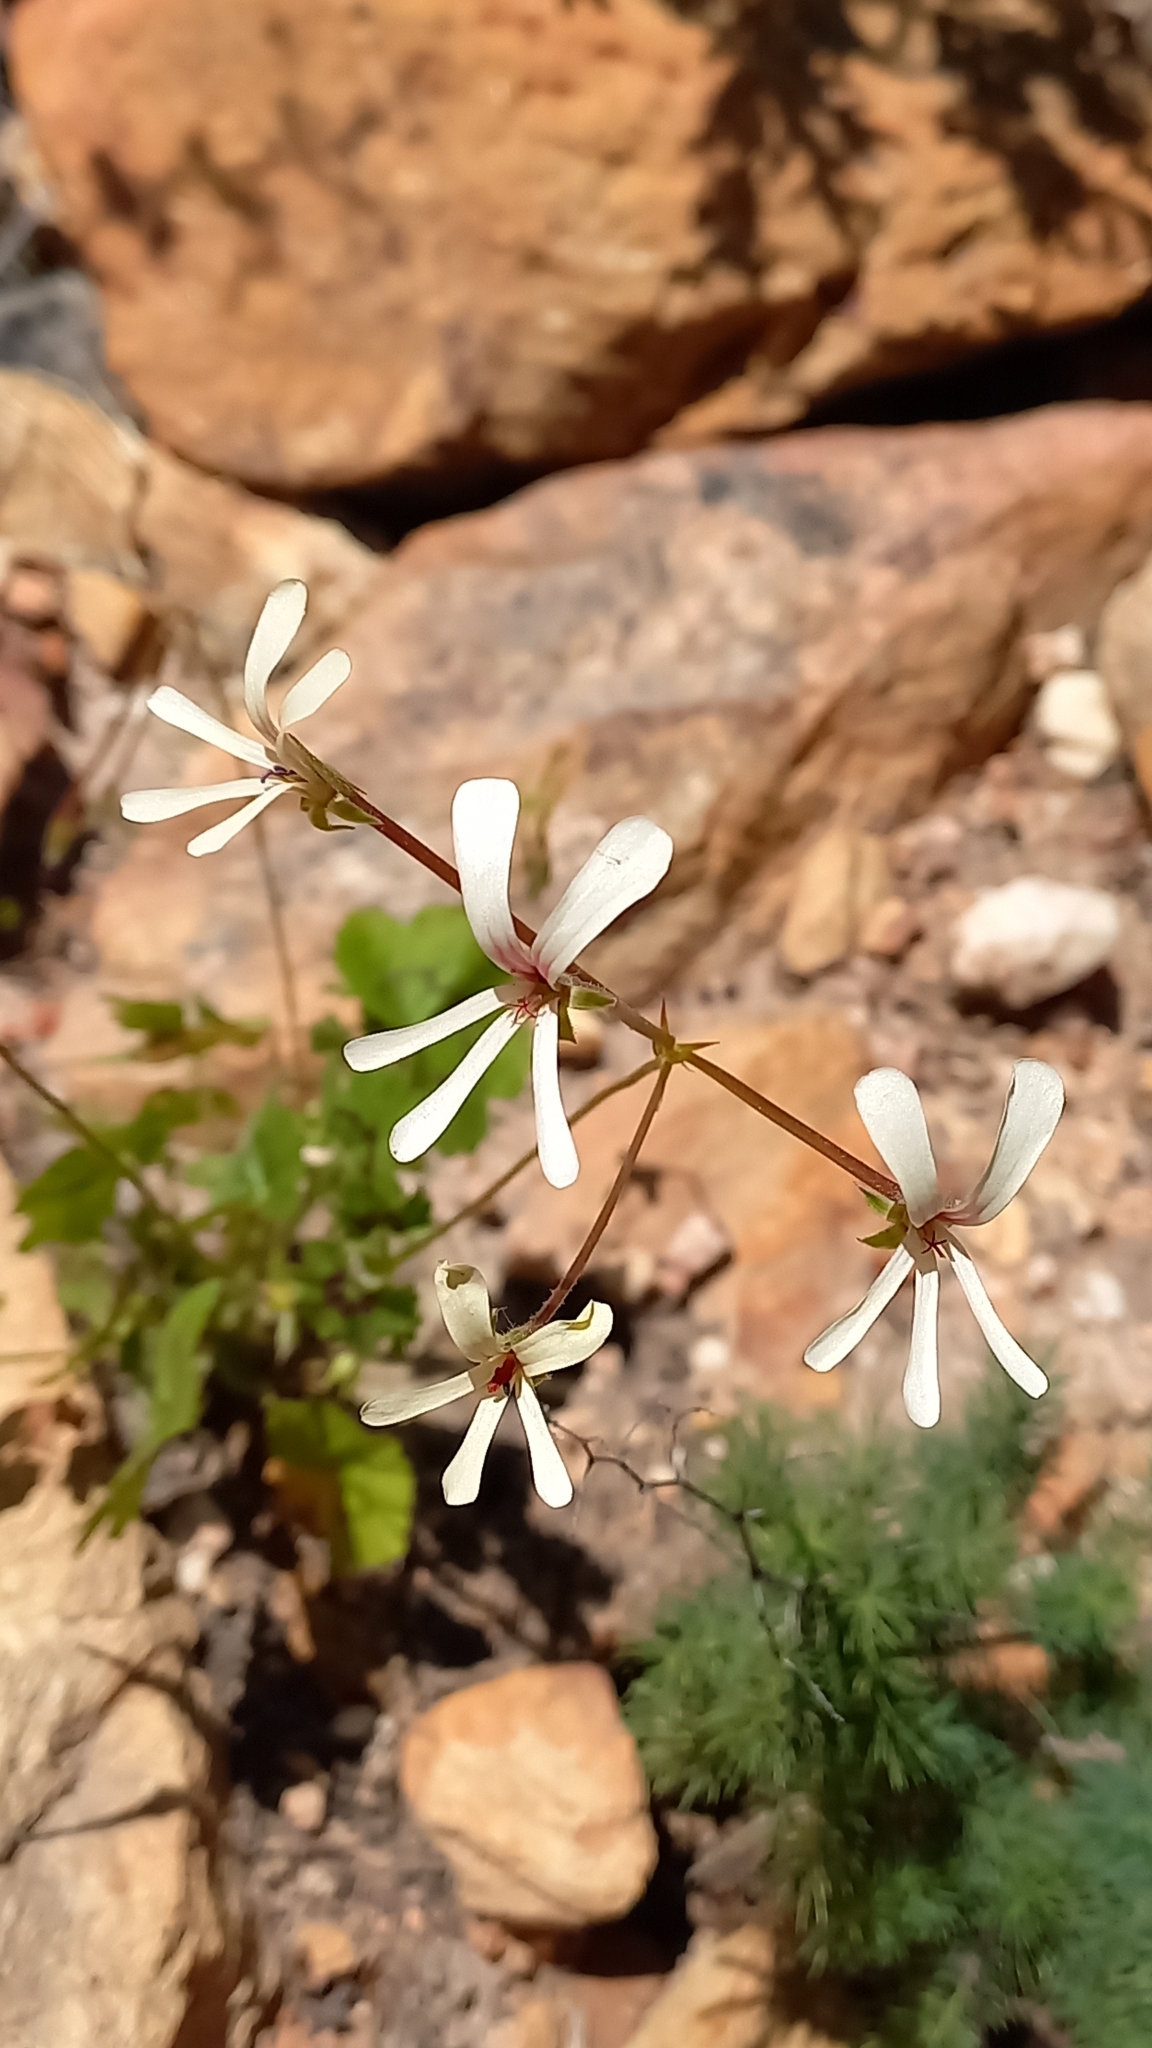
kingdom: Plantae
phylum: Tracheophyta
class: Magnoliopsida
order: Geraniales
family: Geraniaceae
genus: Pelargonium
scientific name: Pelargonium elongatum
